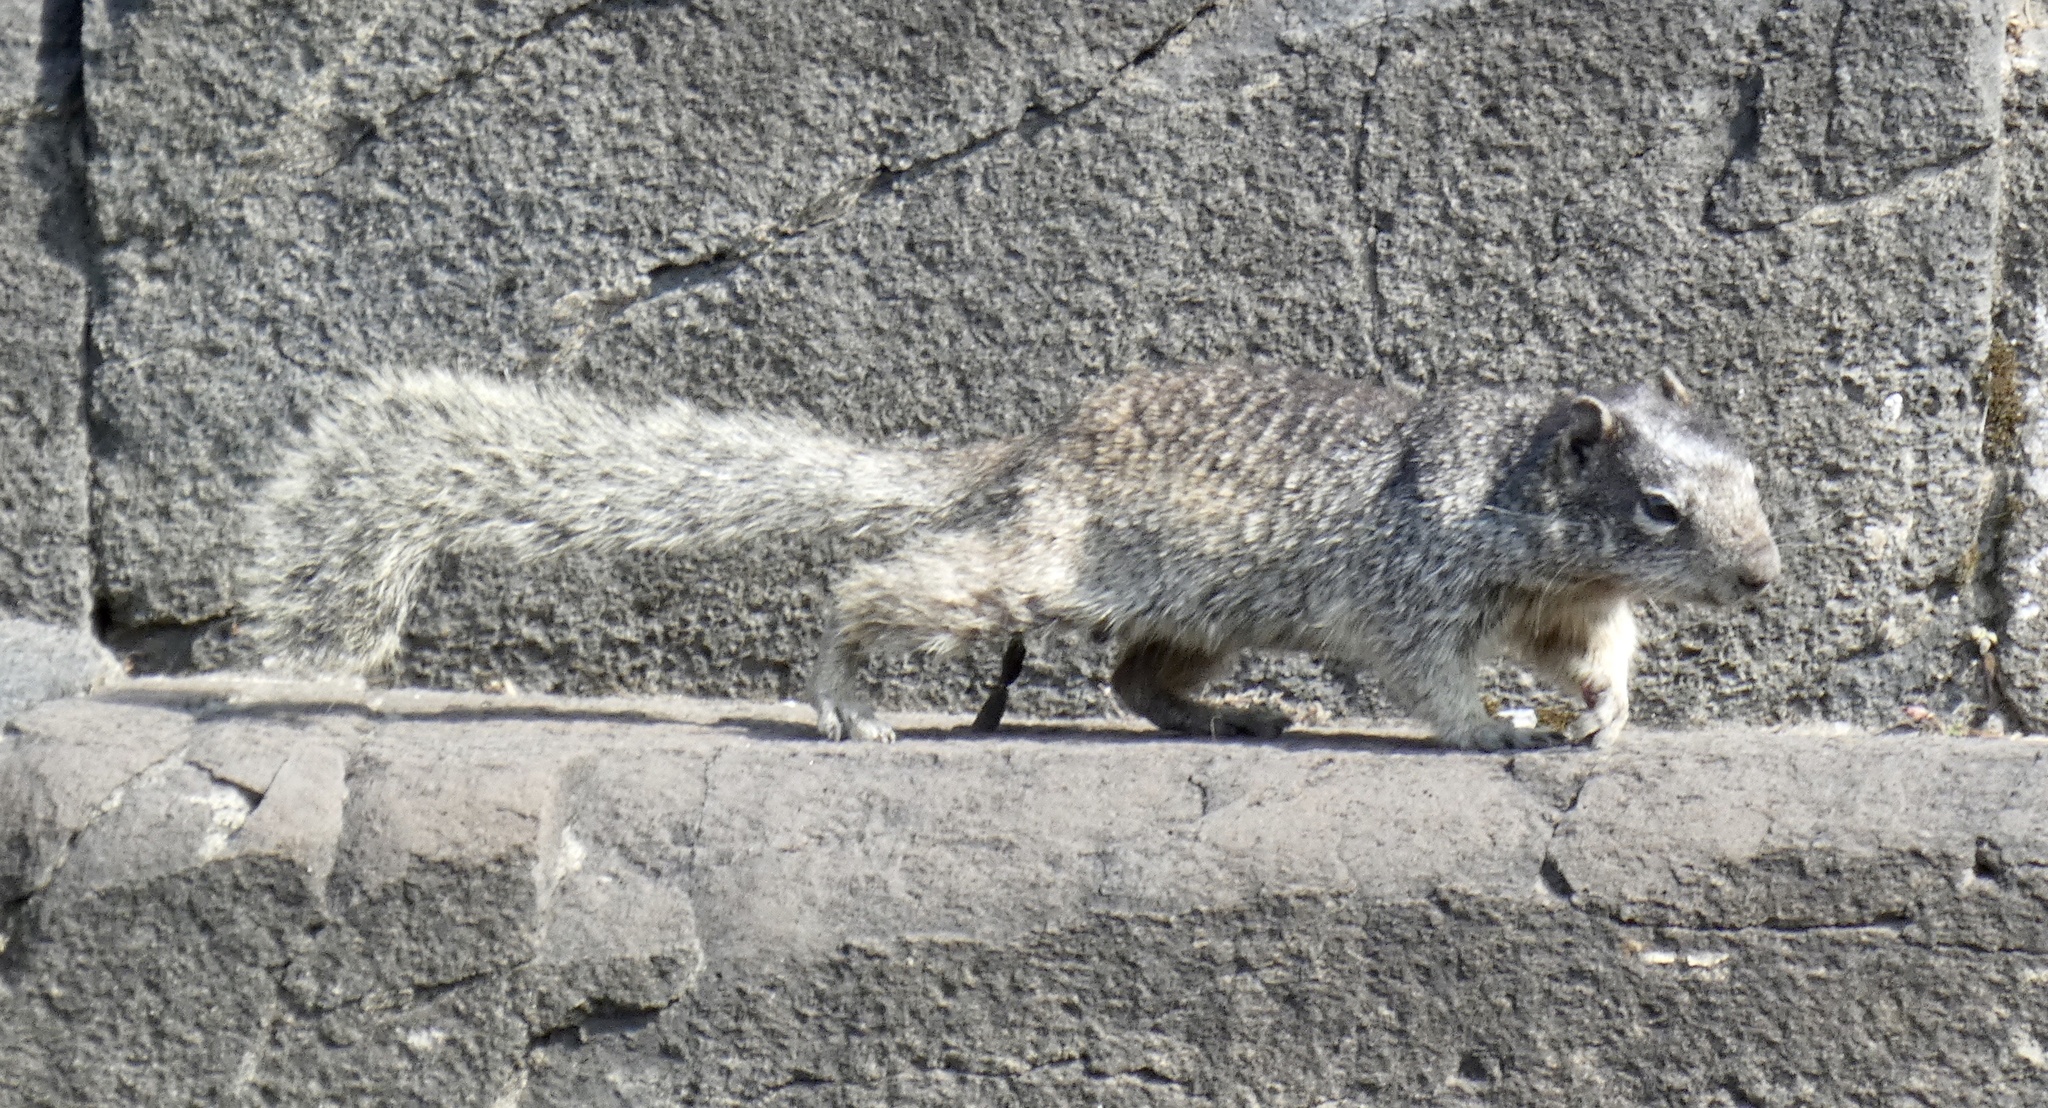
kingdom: Animalia
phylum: Chordata
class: Mammalia
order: Rodentia
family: Sciuridae
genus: Otospermophilus
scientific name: Otospermophilus variegatus
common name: Rock squirrel
